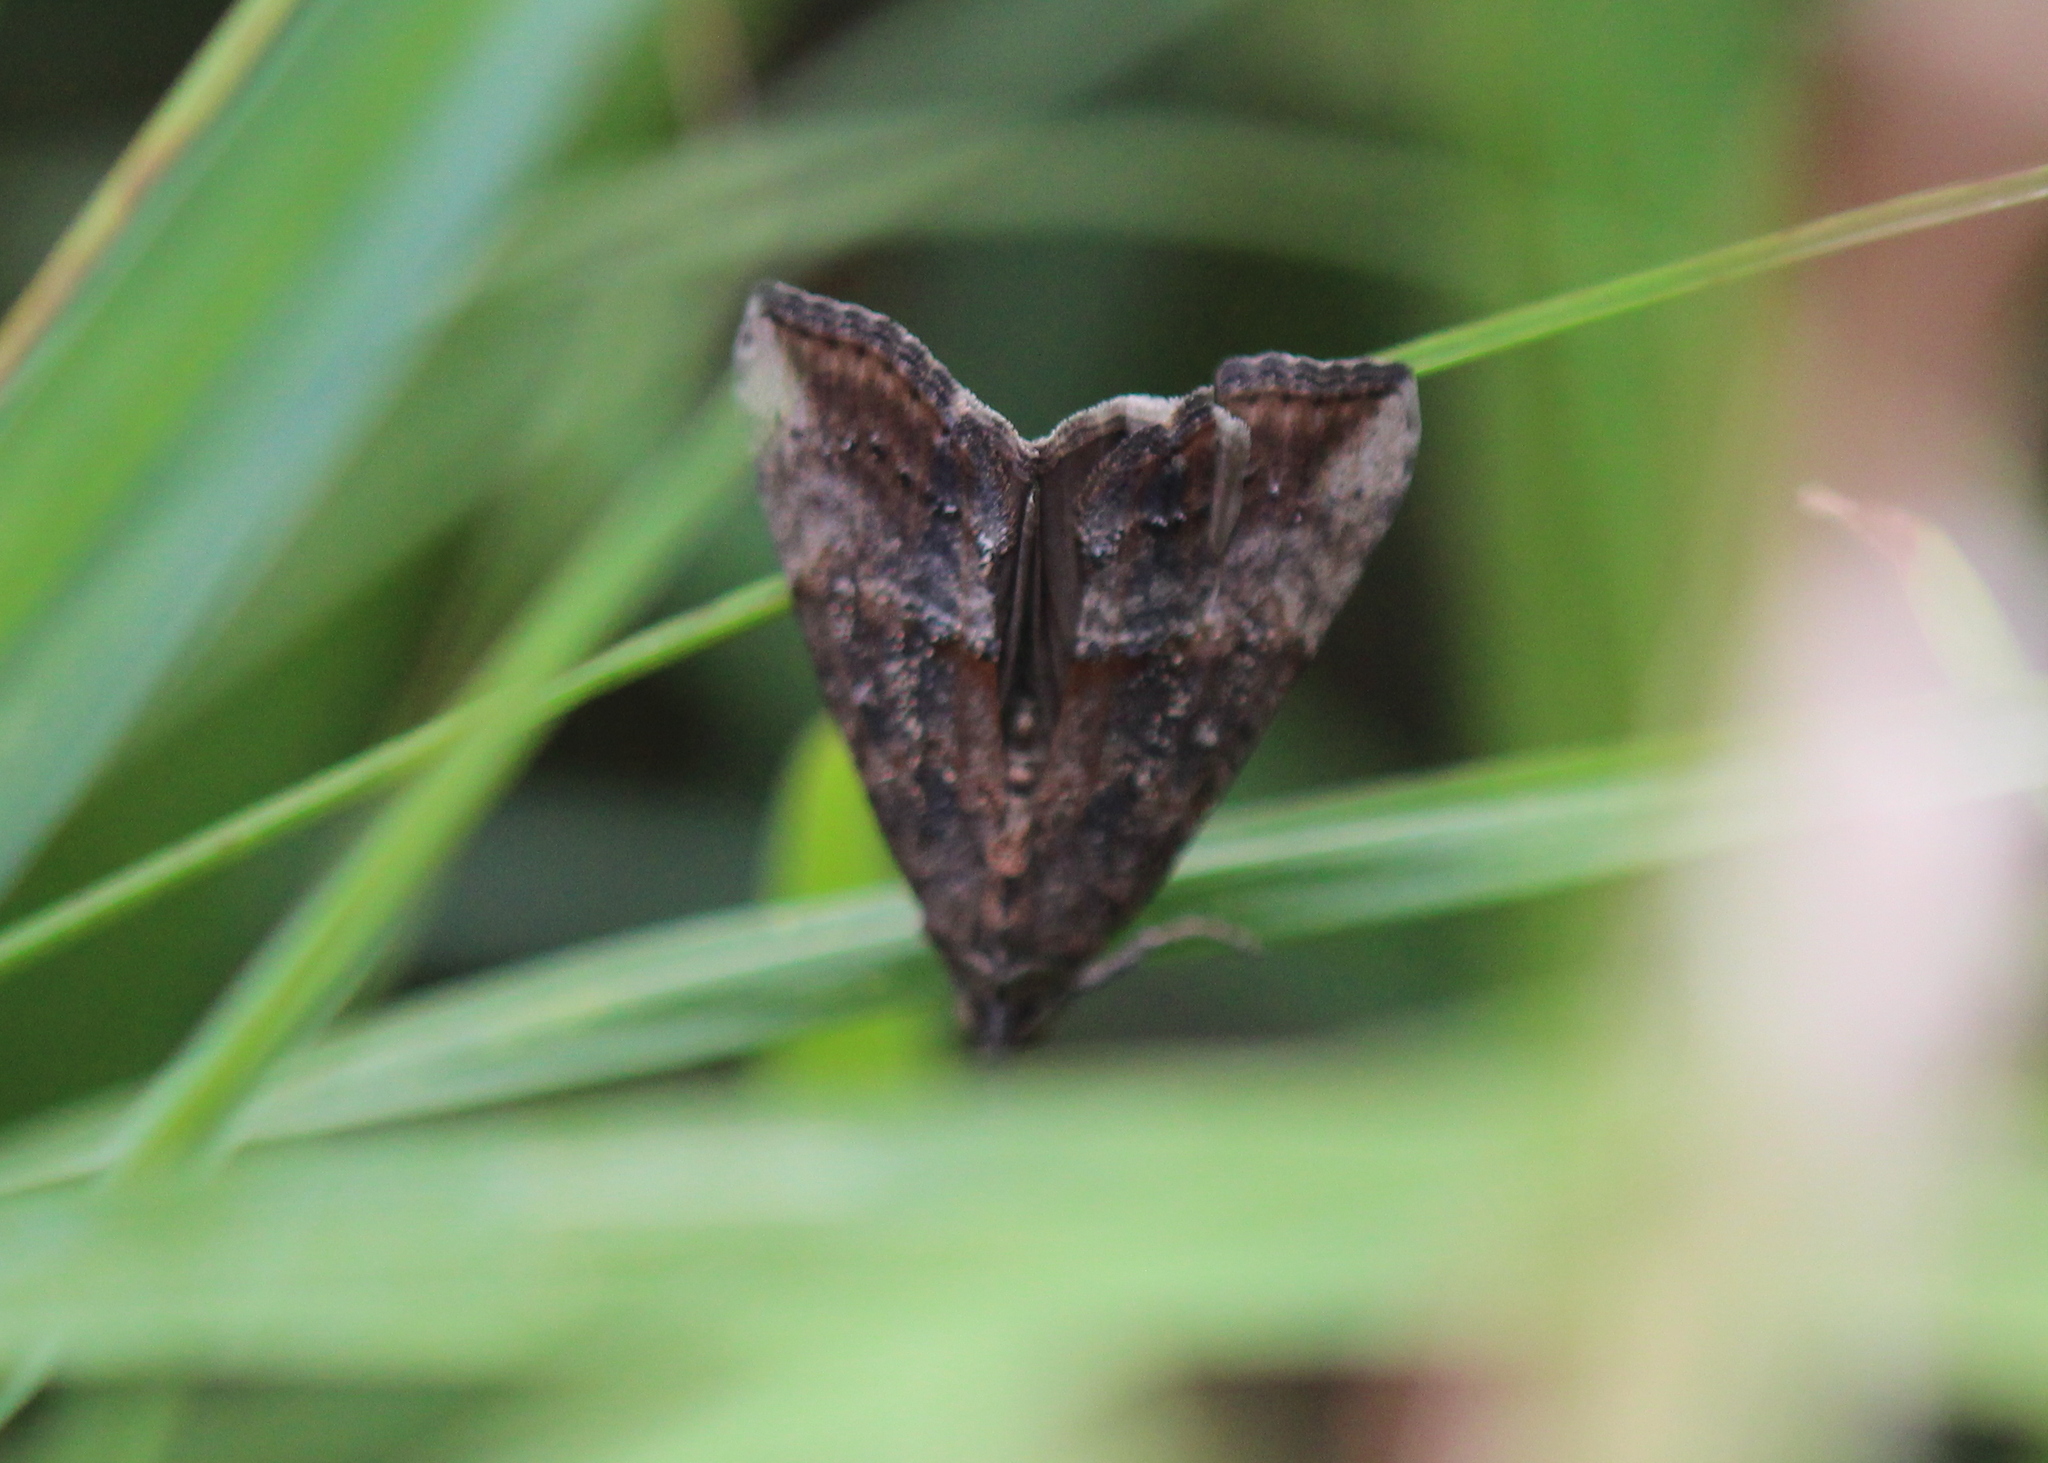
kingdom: Animalia
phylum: Arthropoda
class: Insecta
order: Lepidoptera
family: Erebidae
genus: Hypena
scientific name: Hypena scabra
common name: Green cloverworm
